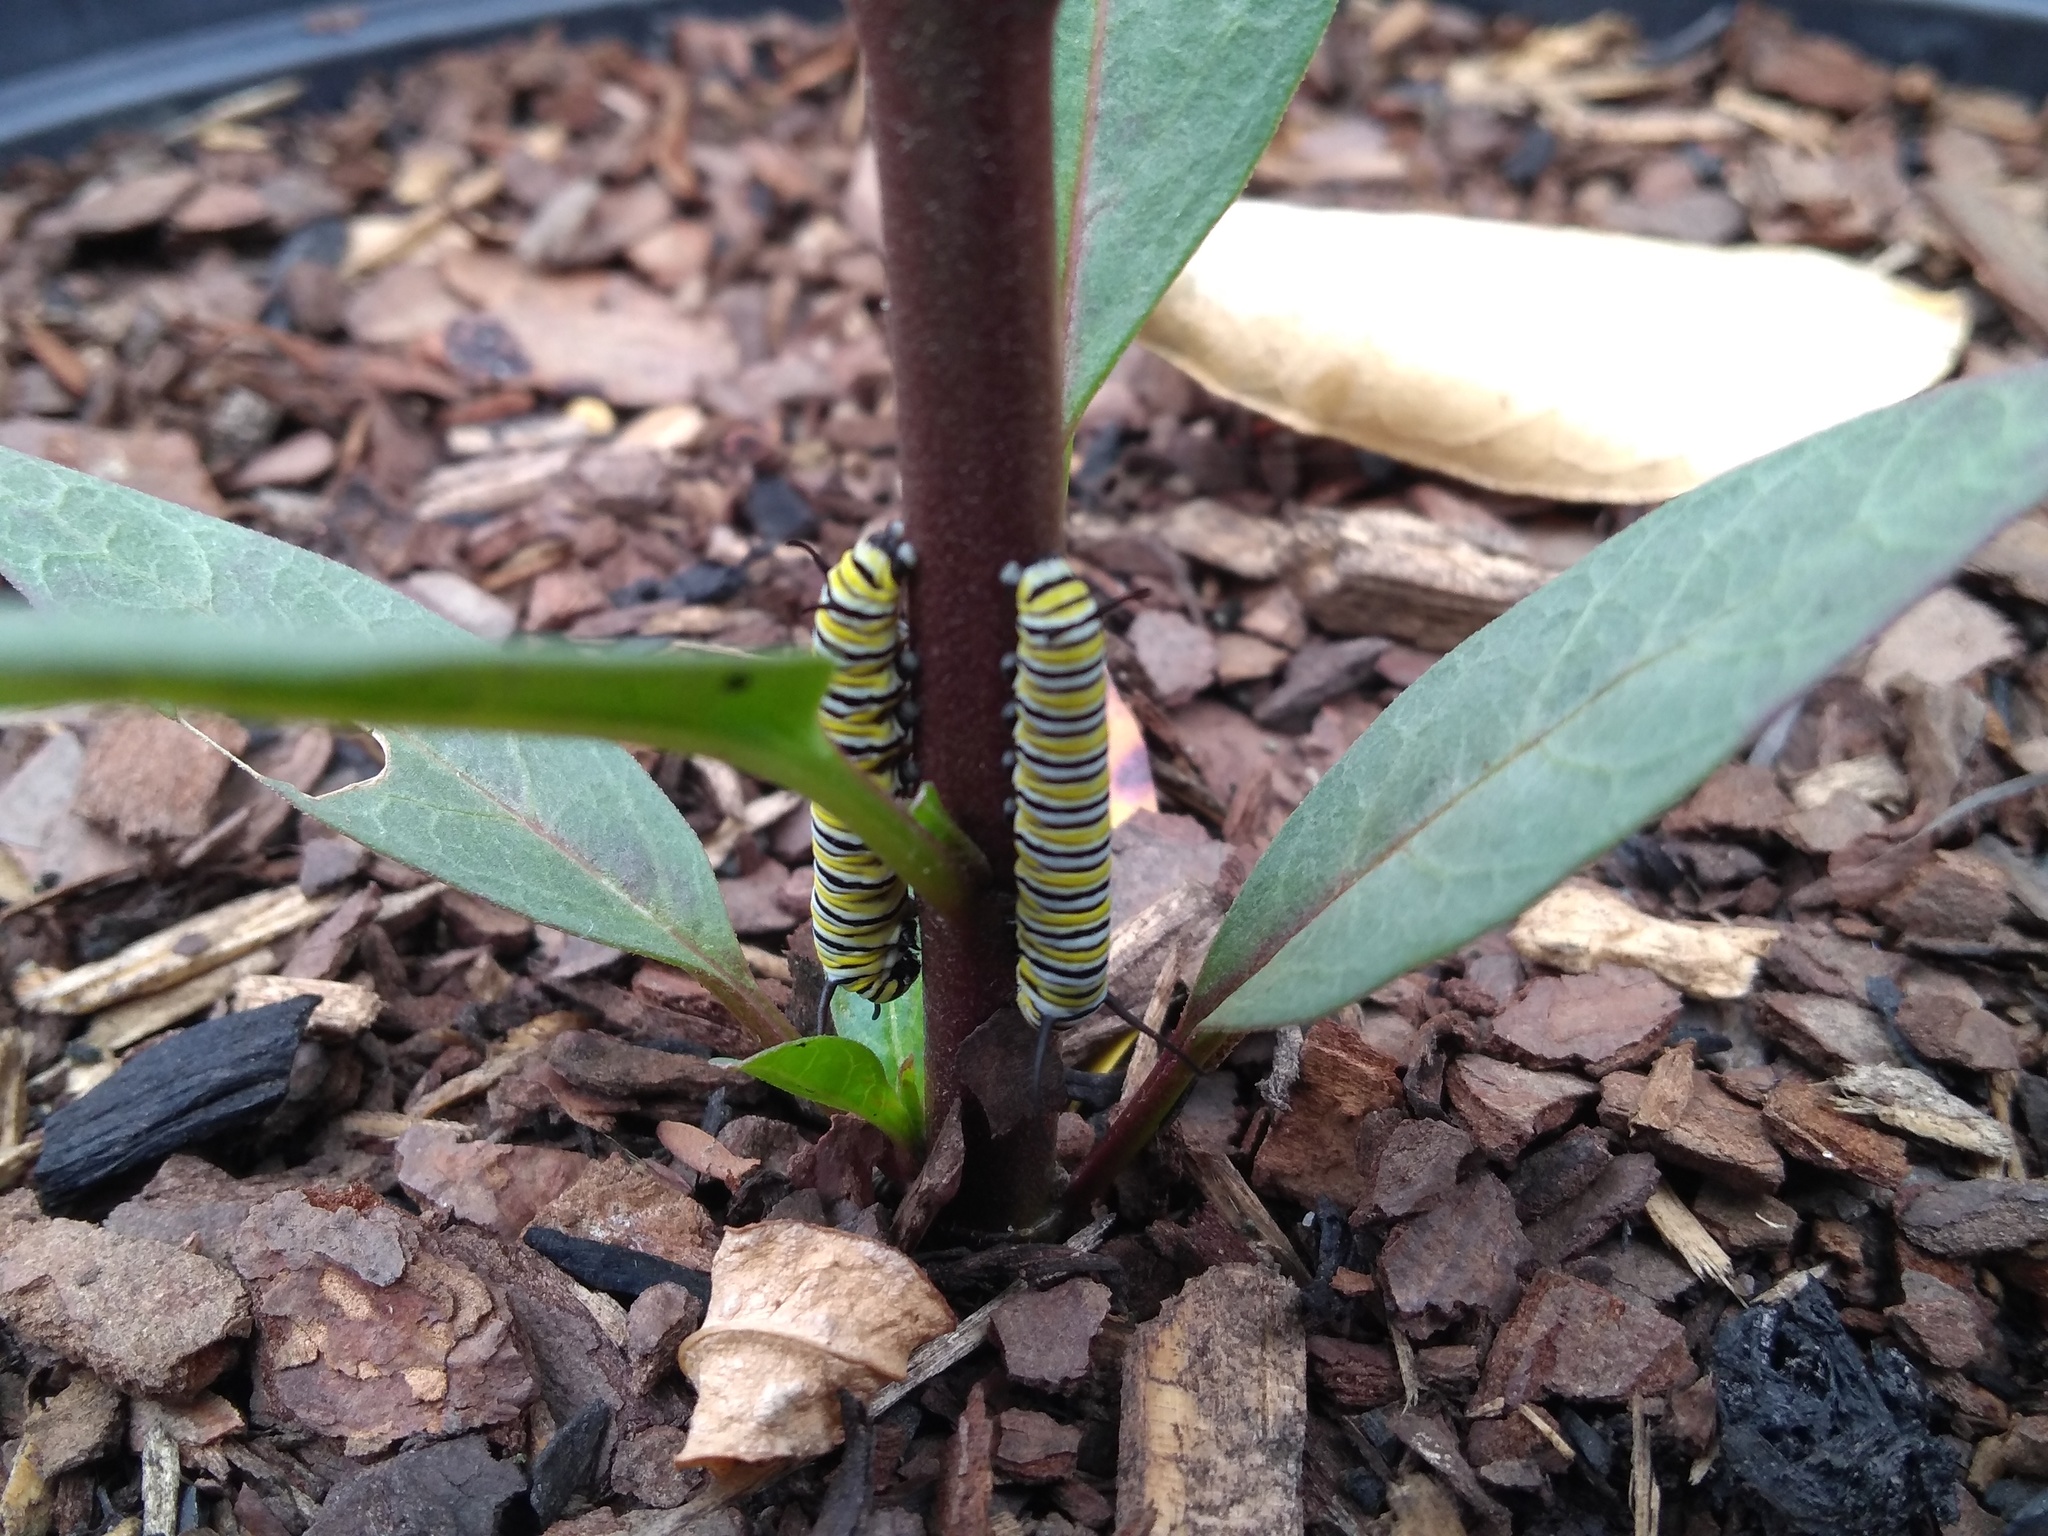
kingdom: Animalia
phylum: Arthropoda
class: Insecta
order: Lepidoptera
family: Nymphalidae
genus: Danaus
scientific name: Danaus plexippus
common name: Monarch
